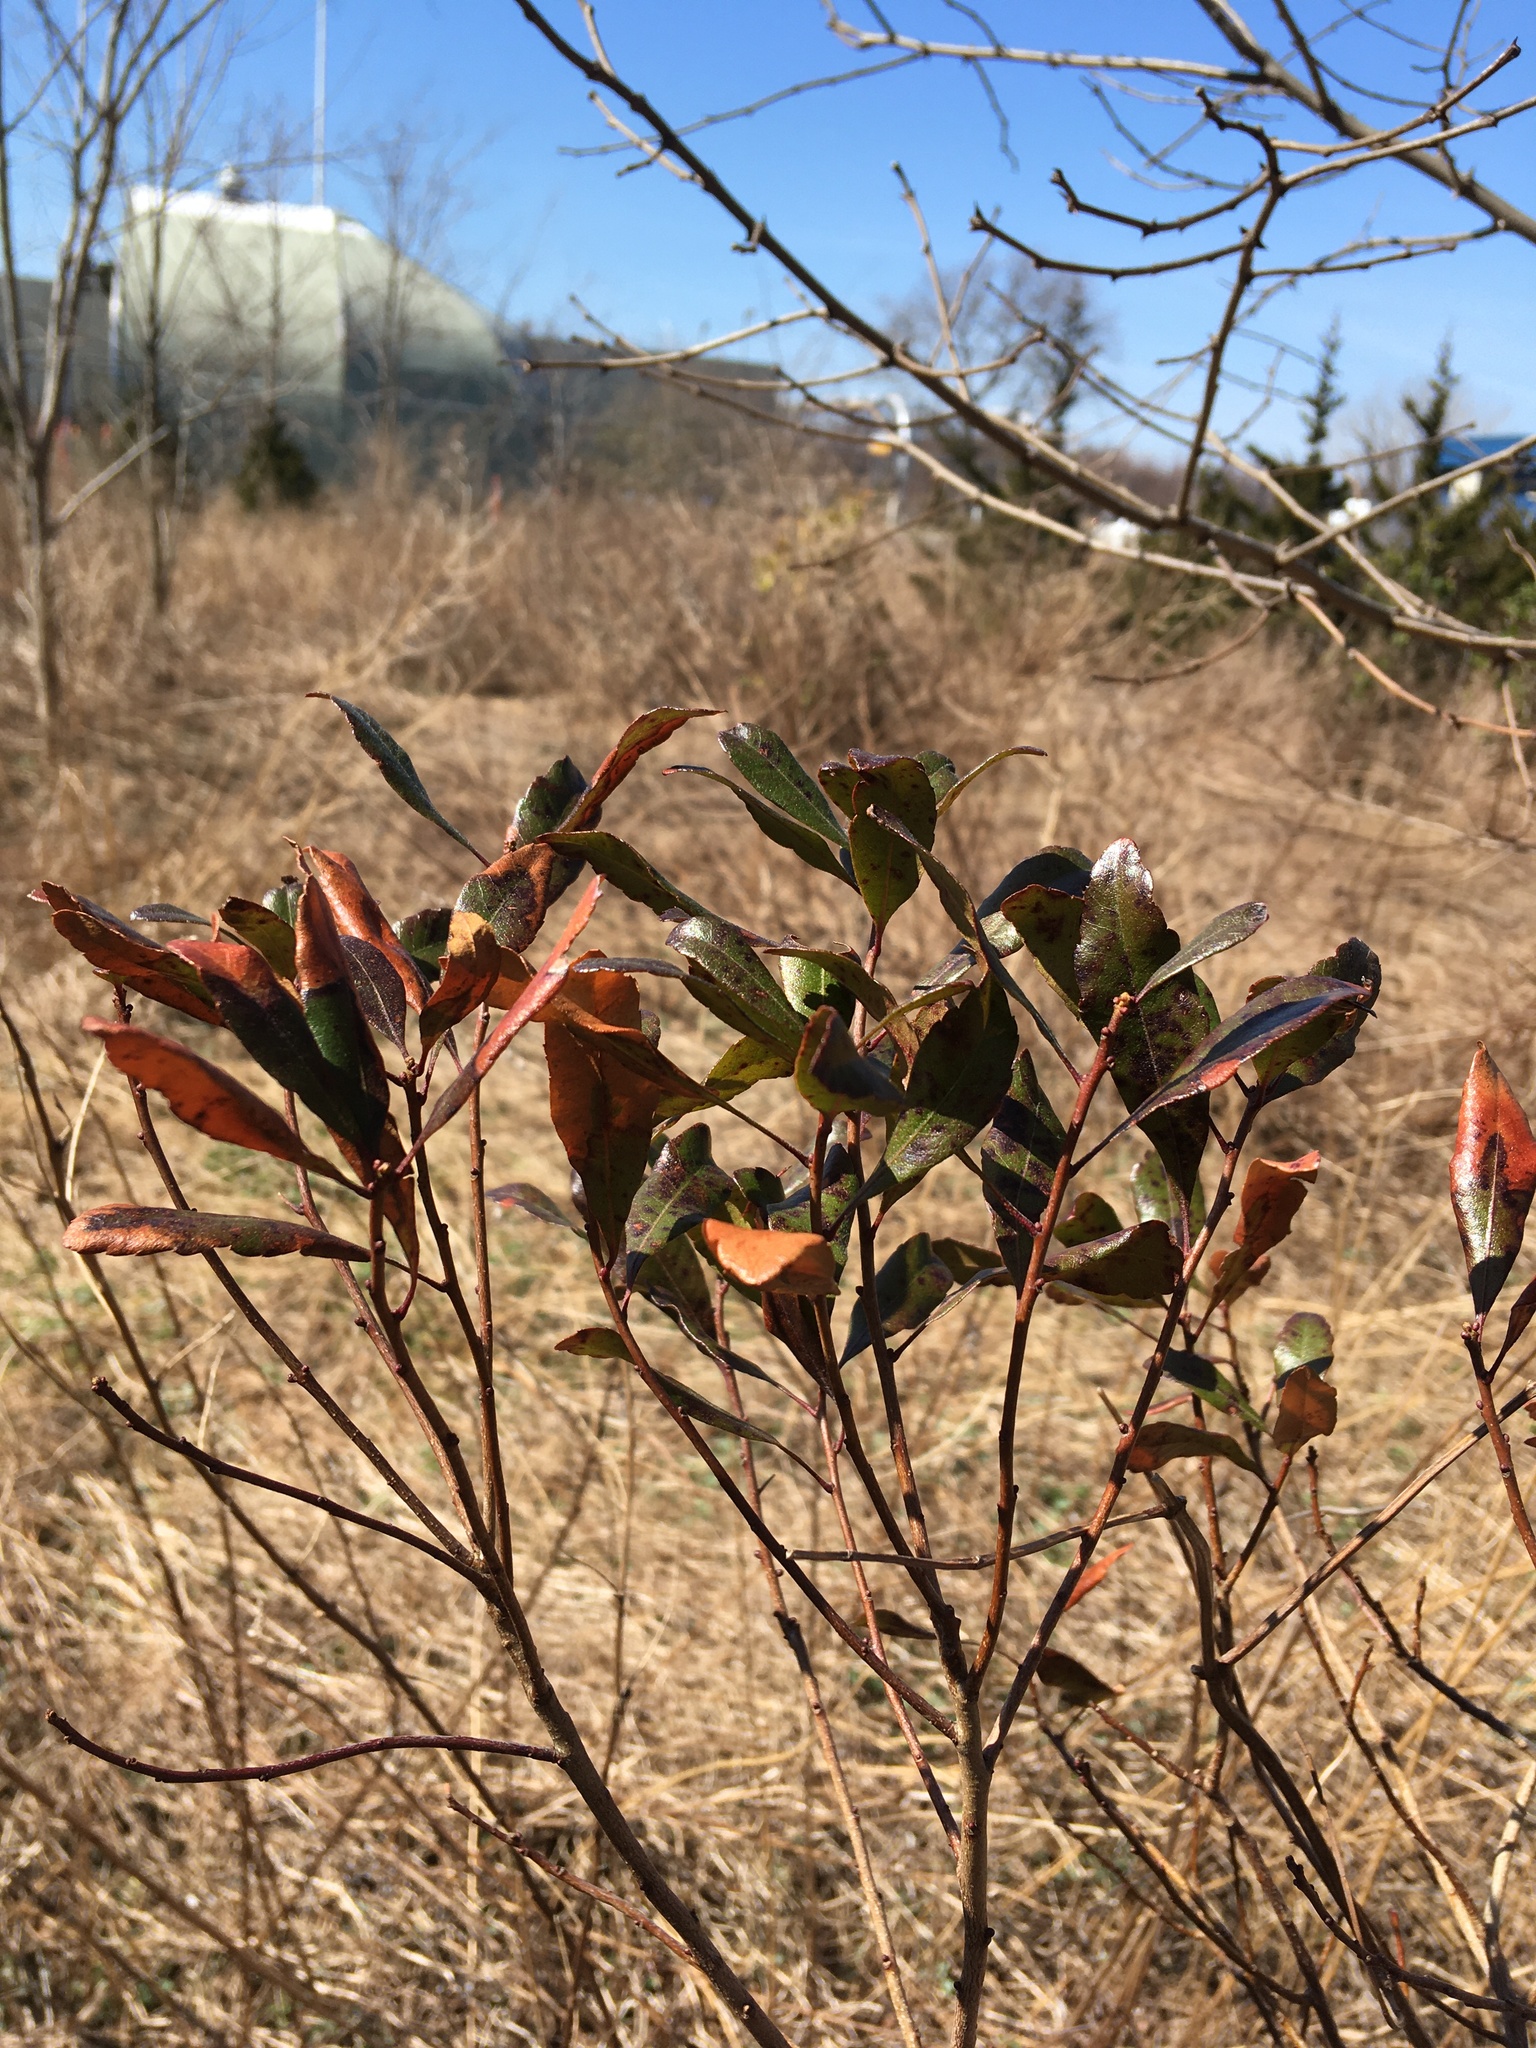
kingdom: Plantae
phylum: Tracheophyta
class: Magnoliopsida
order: Fagales
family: Myricaceae
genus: Morella
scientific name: Morella pensylvanica
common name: Northern bayberry
